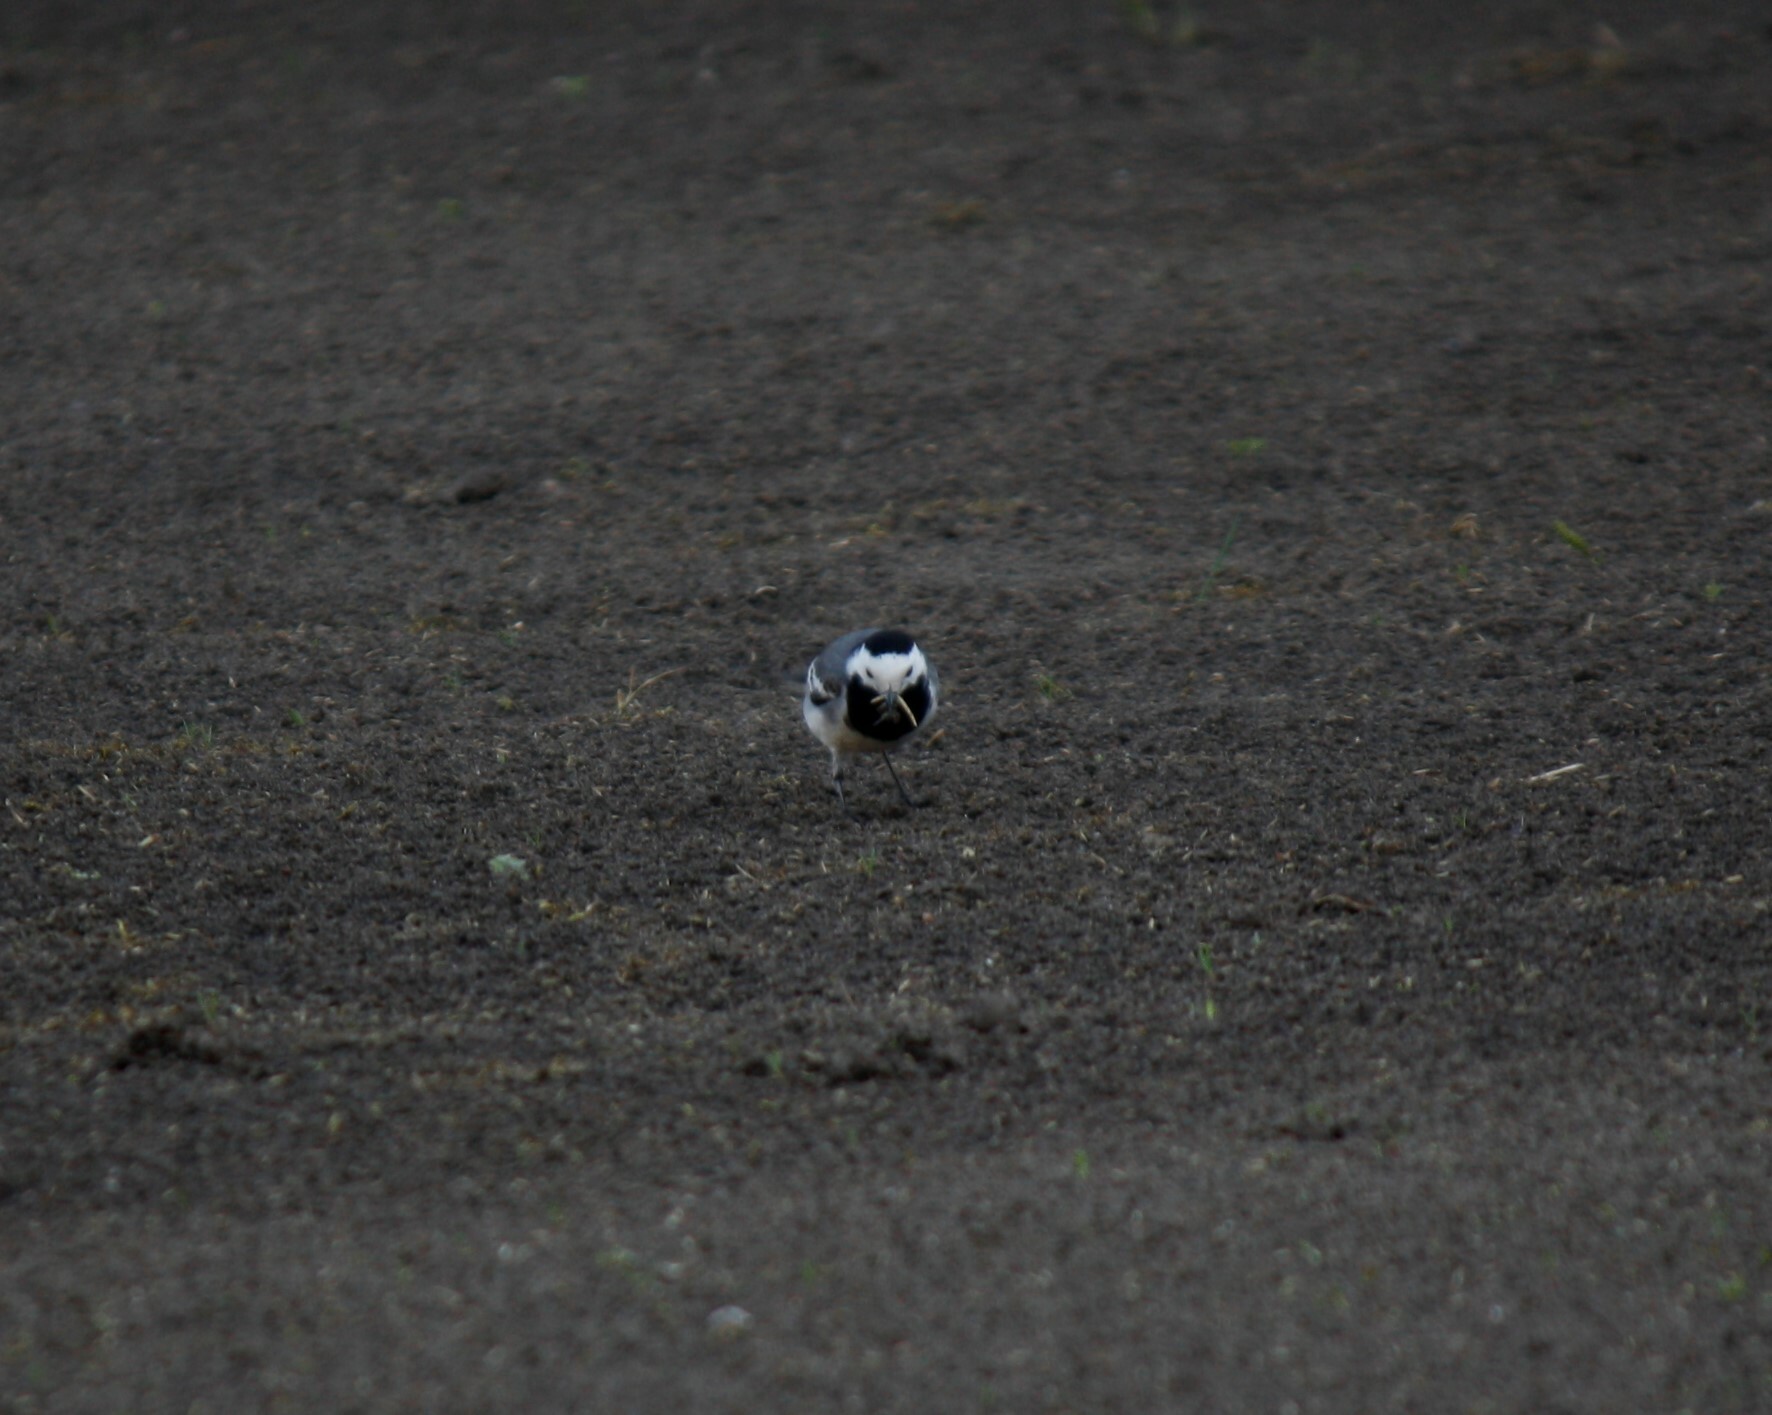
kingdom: Animalia
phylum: Chordata
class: Aves
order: Passeriformes
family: Motacillidae
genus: Motacilla
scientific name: Motacilla alba
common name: White wagtail
